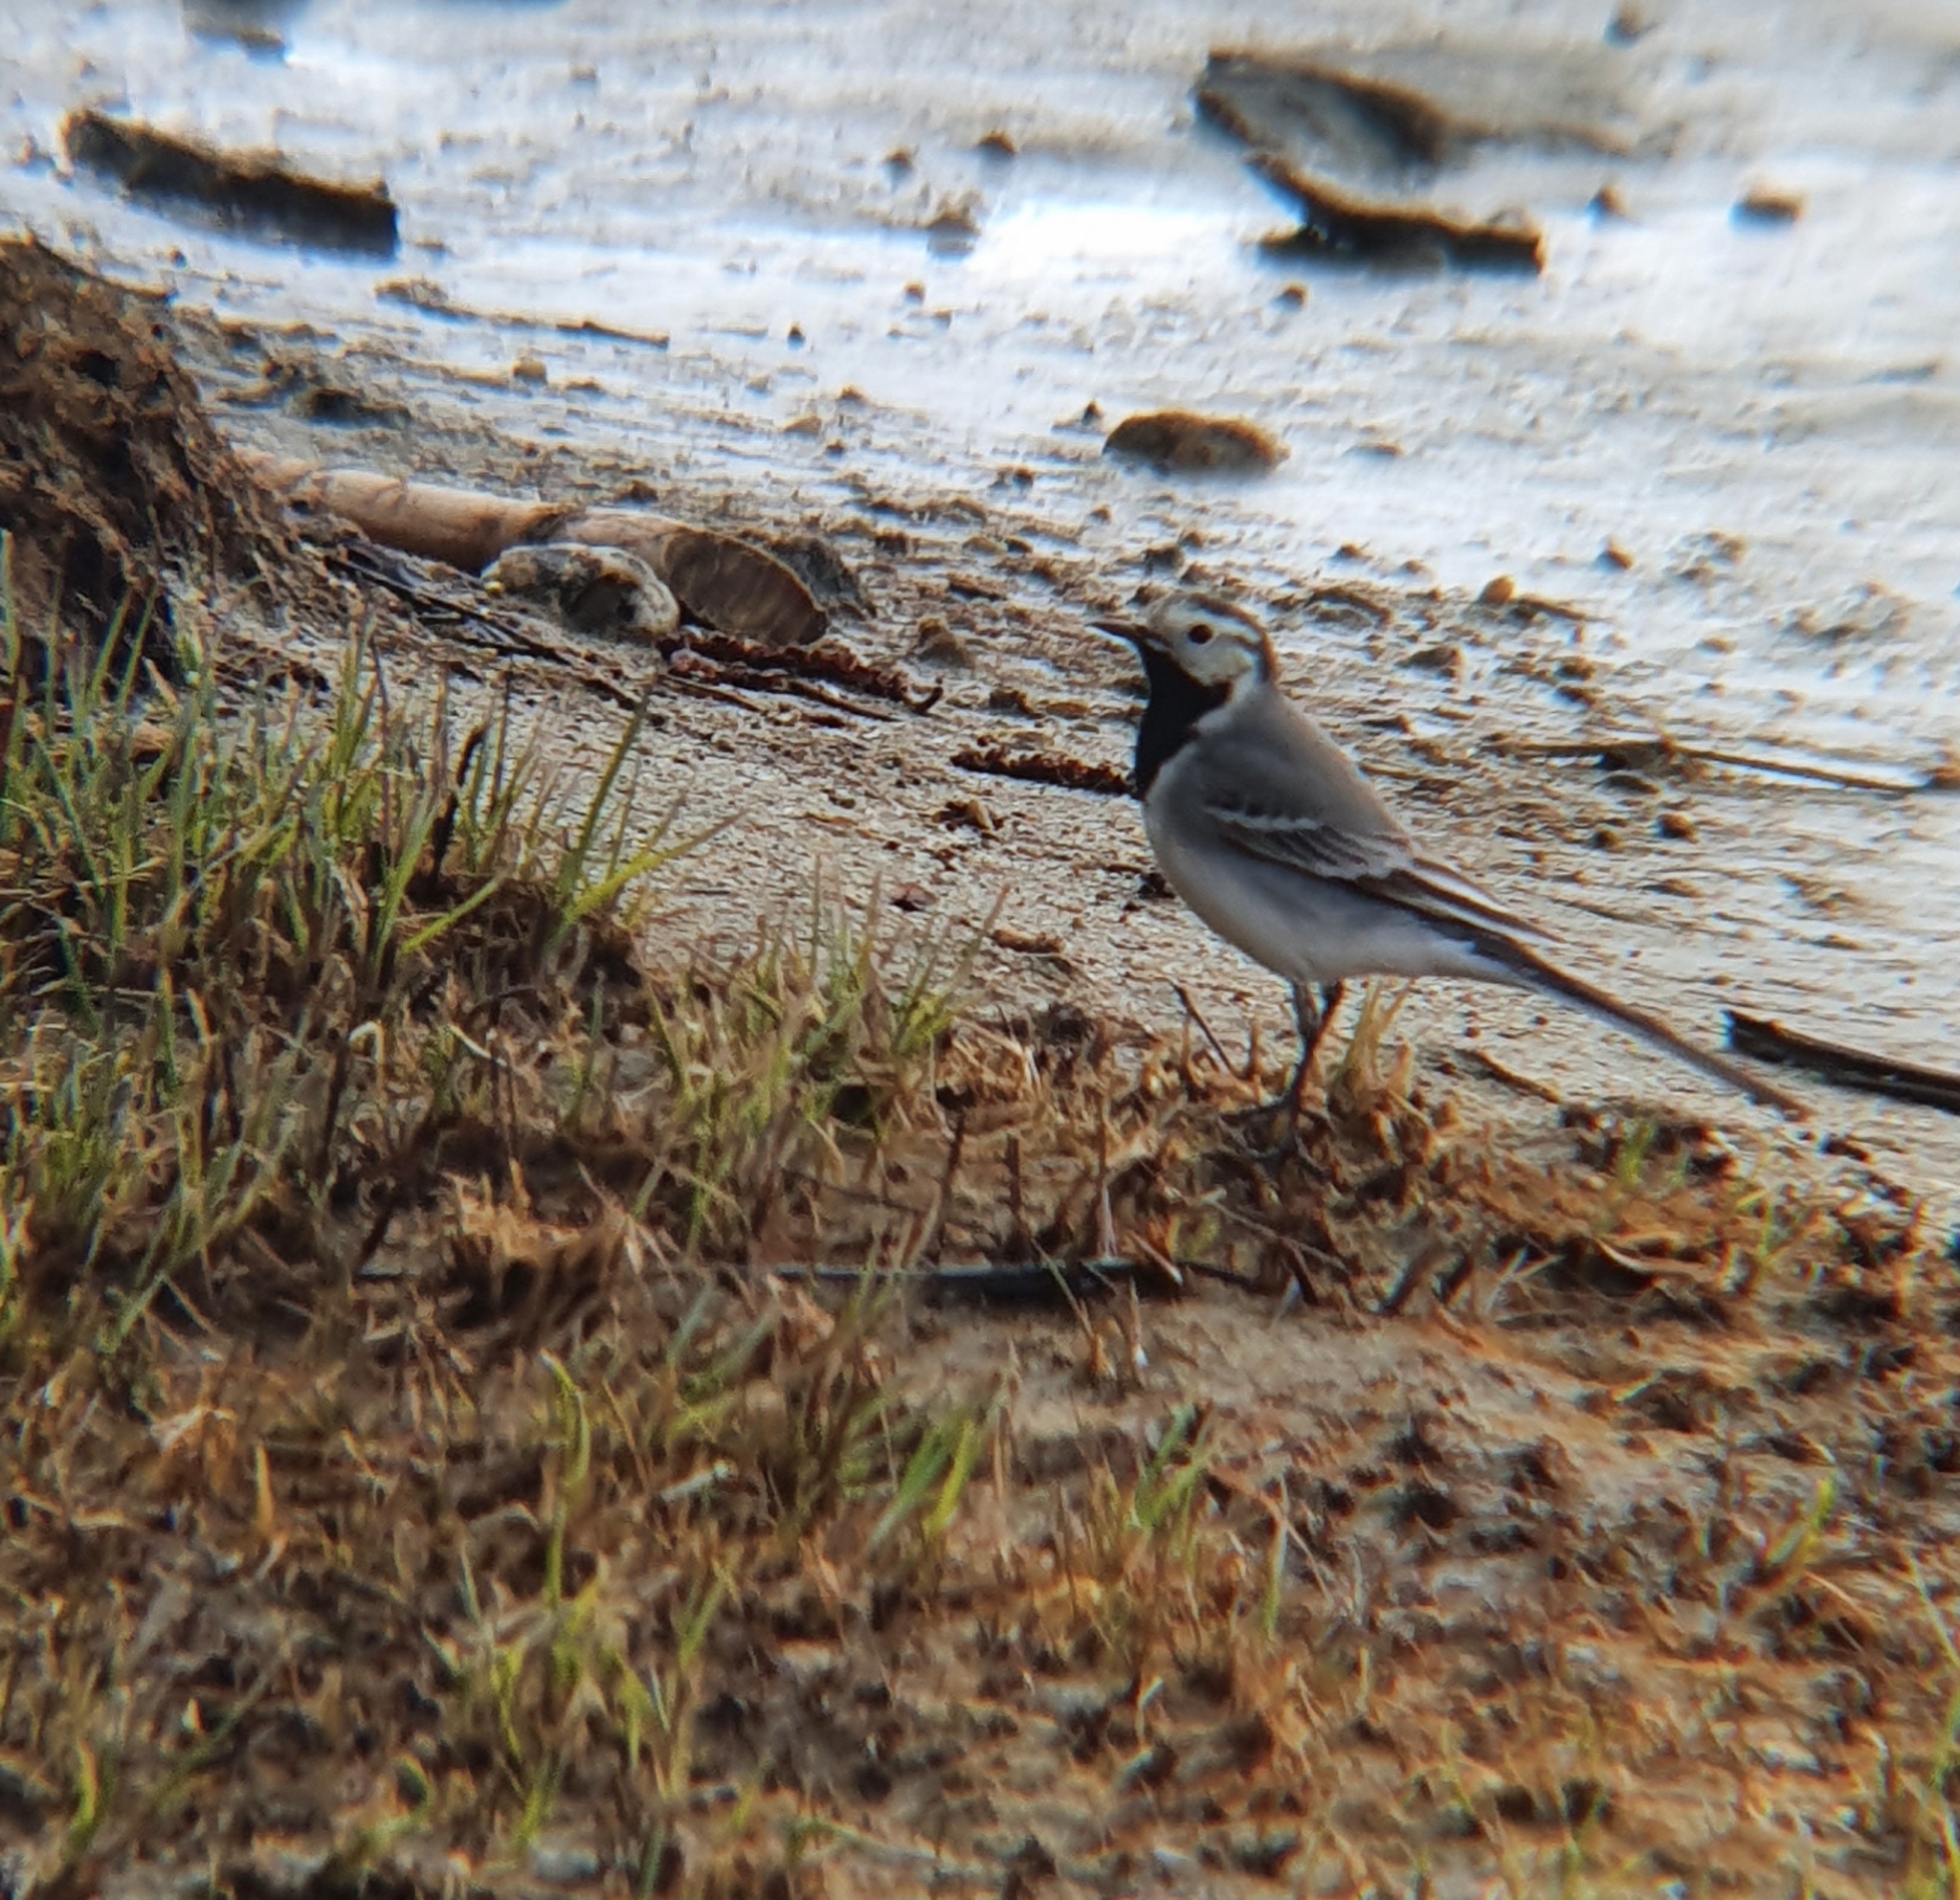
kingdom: Animalia
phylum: Chordata
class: Aves
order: Passeriformes
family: Motacillidae
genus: Motacilla
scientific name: Motacilla alba
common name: White wagtail
